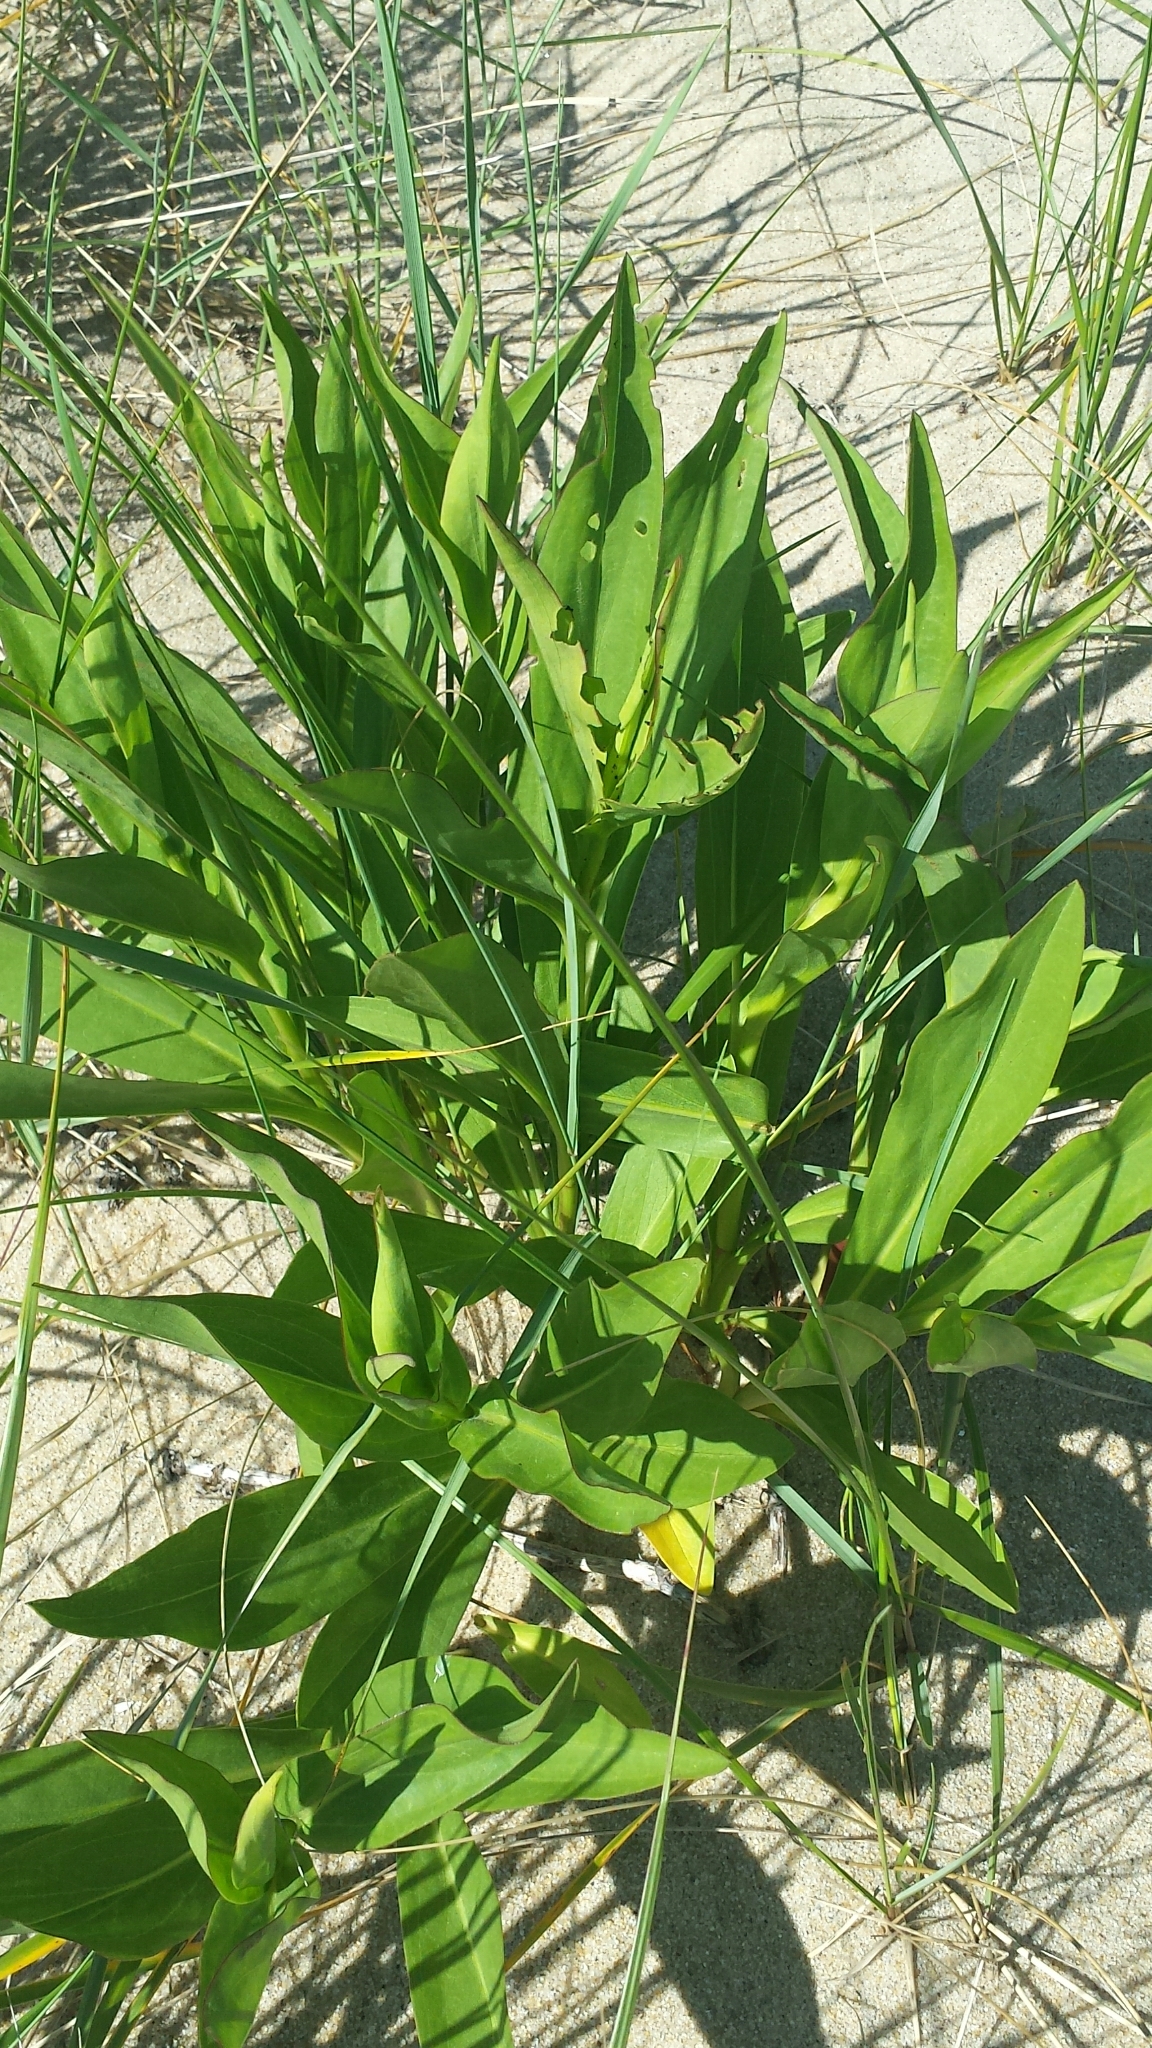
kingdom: Plantae
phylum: Tracheophyta
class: Magnoliopsida
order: Asterales
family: Asteraceae
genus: Solidago
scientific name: Solidago sempervirens
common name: Salt-marsh goldenrod
